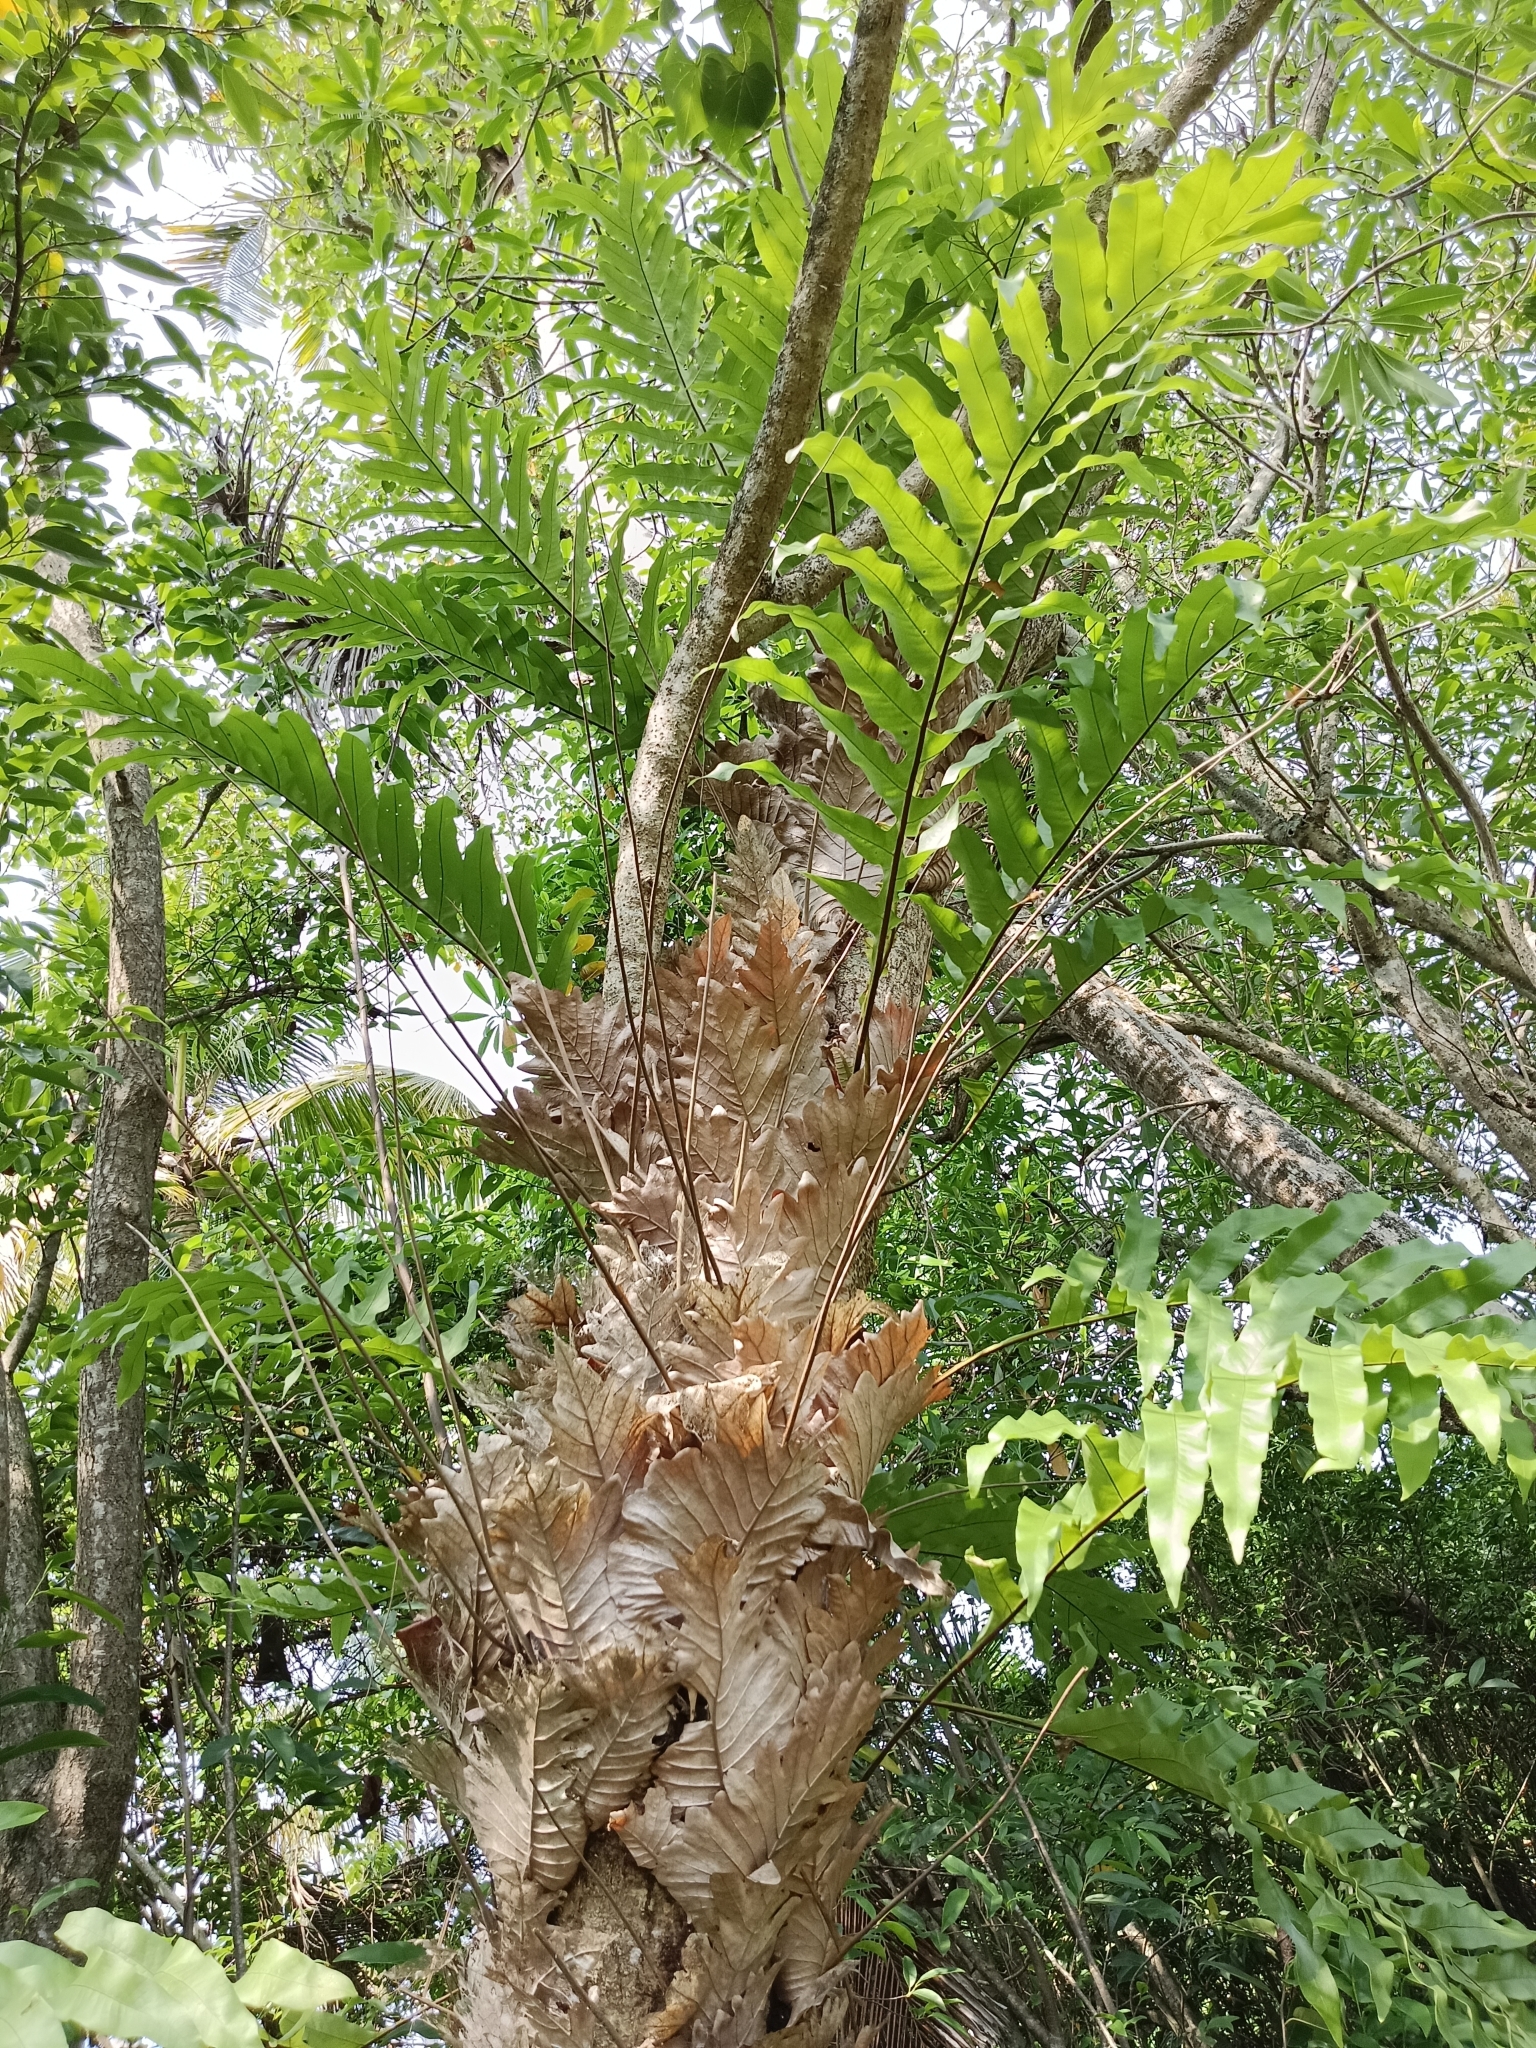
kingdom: Plantae
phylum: Tracheophyta
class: Polypodiopsida
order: Polypodiales
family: Polypodiaceae
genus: Drynaria
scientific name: Drynaria quercifolia
